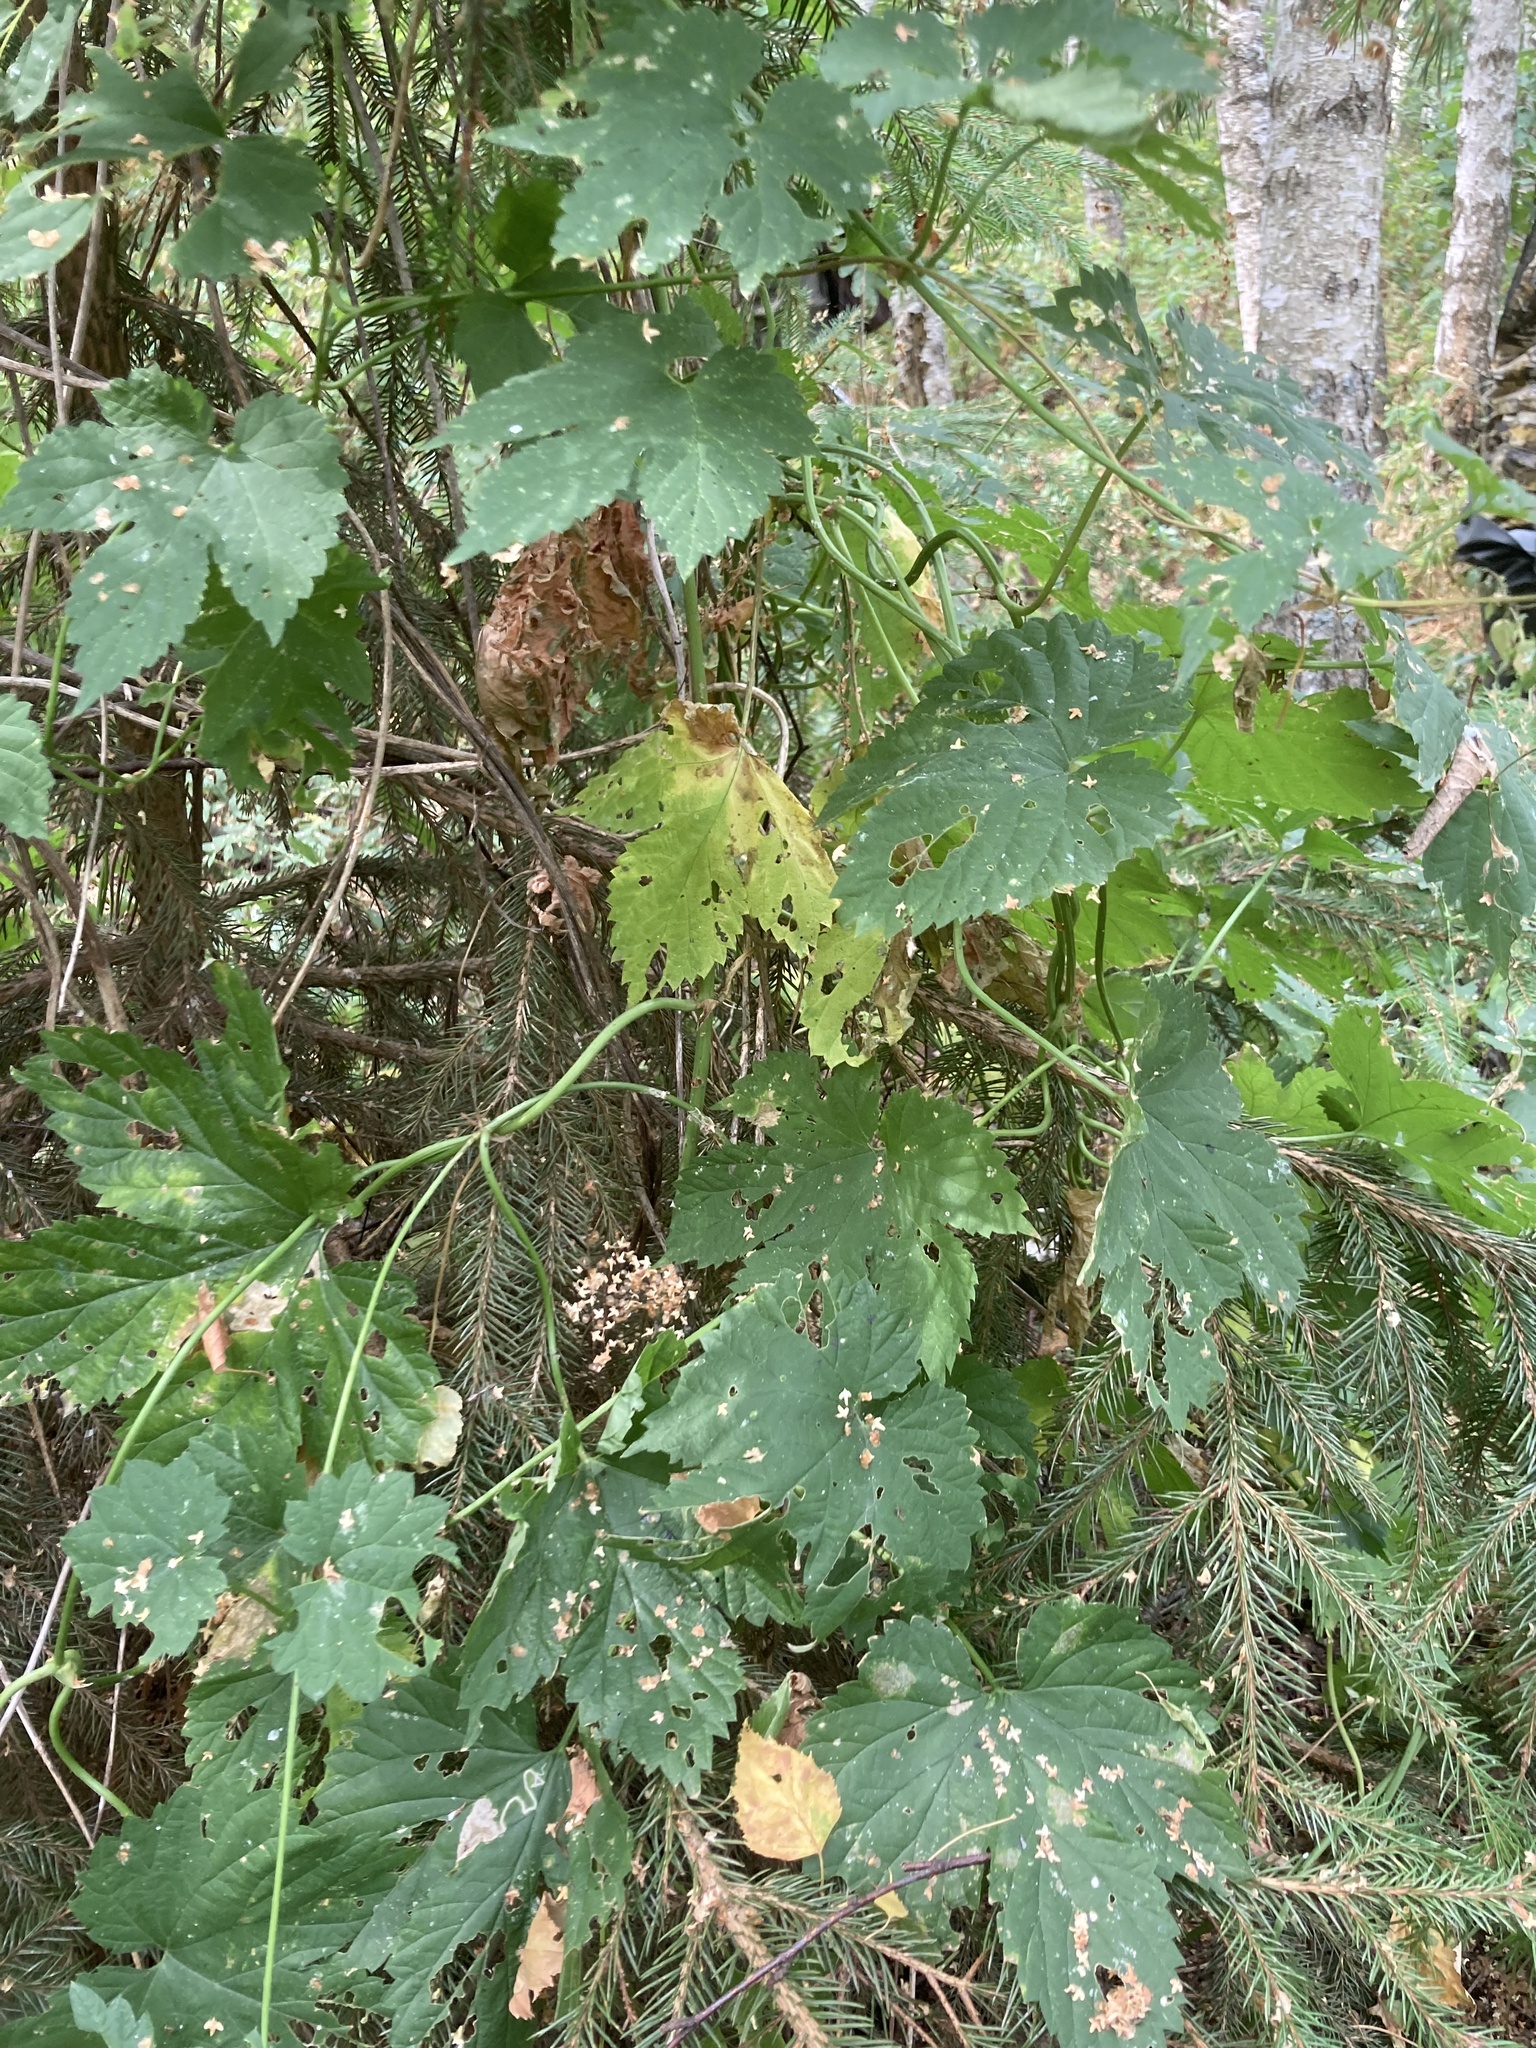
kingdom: Plantae
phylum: Tracheophyta
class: Magnoliopsida
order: Rosales
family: Cannabaceae
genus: Humulus
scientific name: Humulus lupulus
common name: Hop
